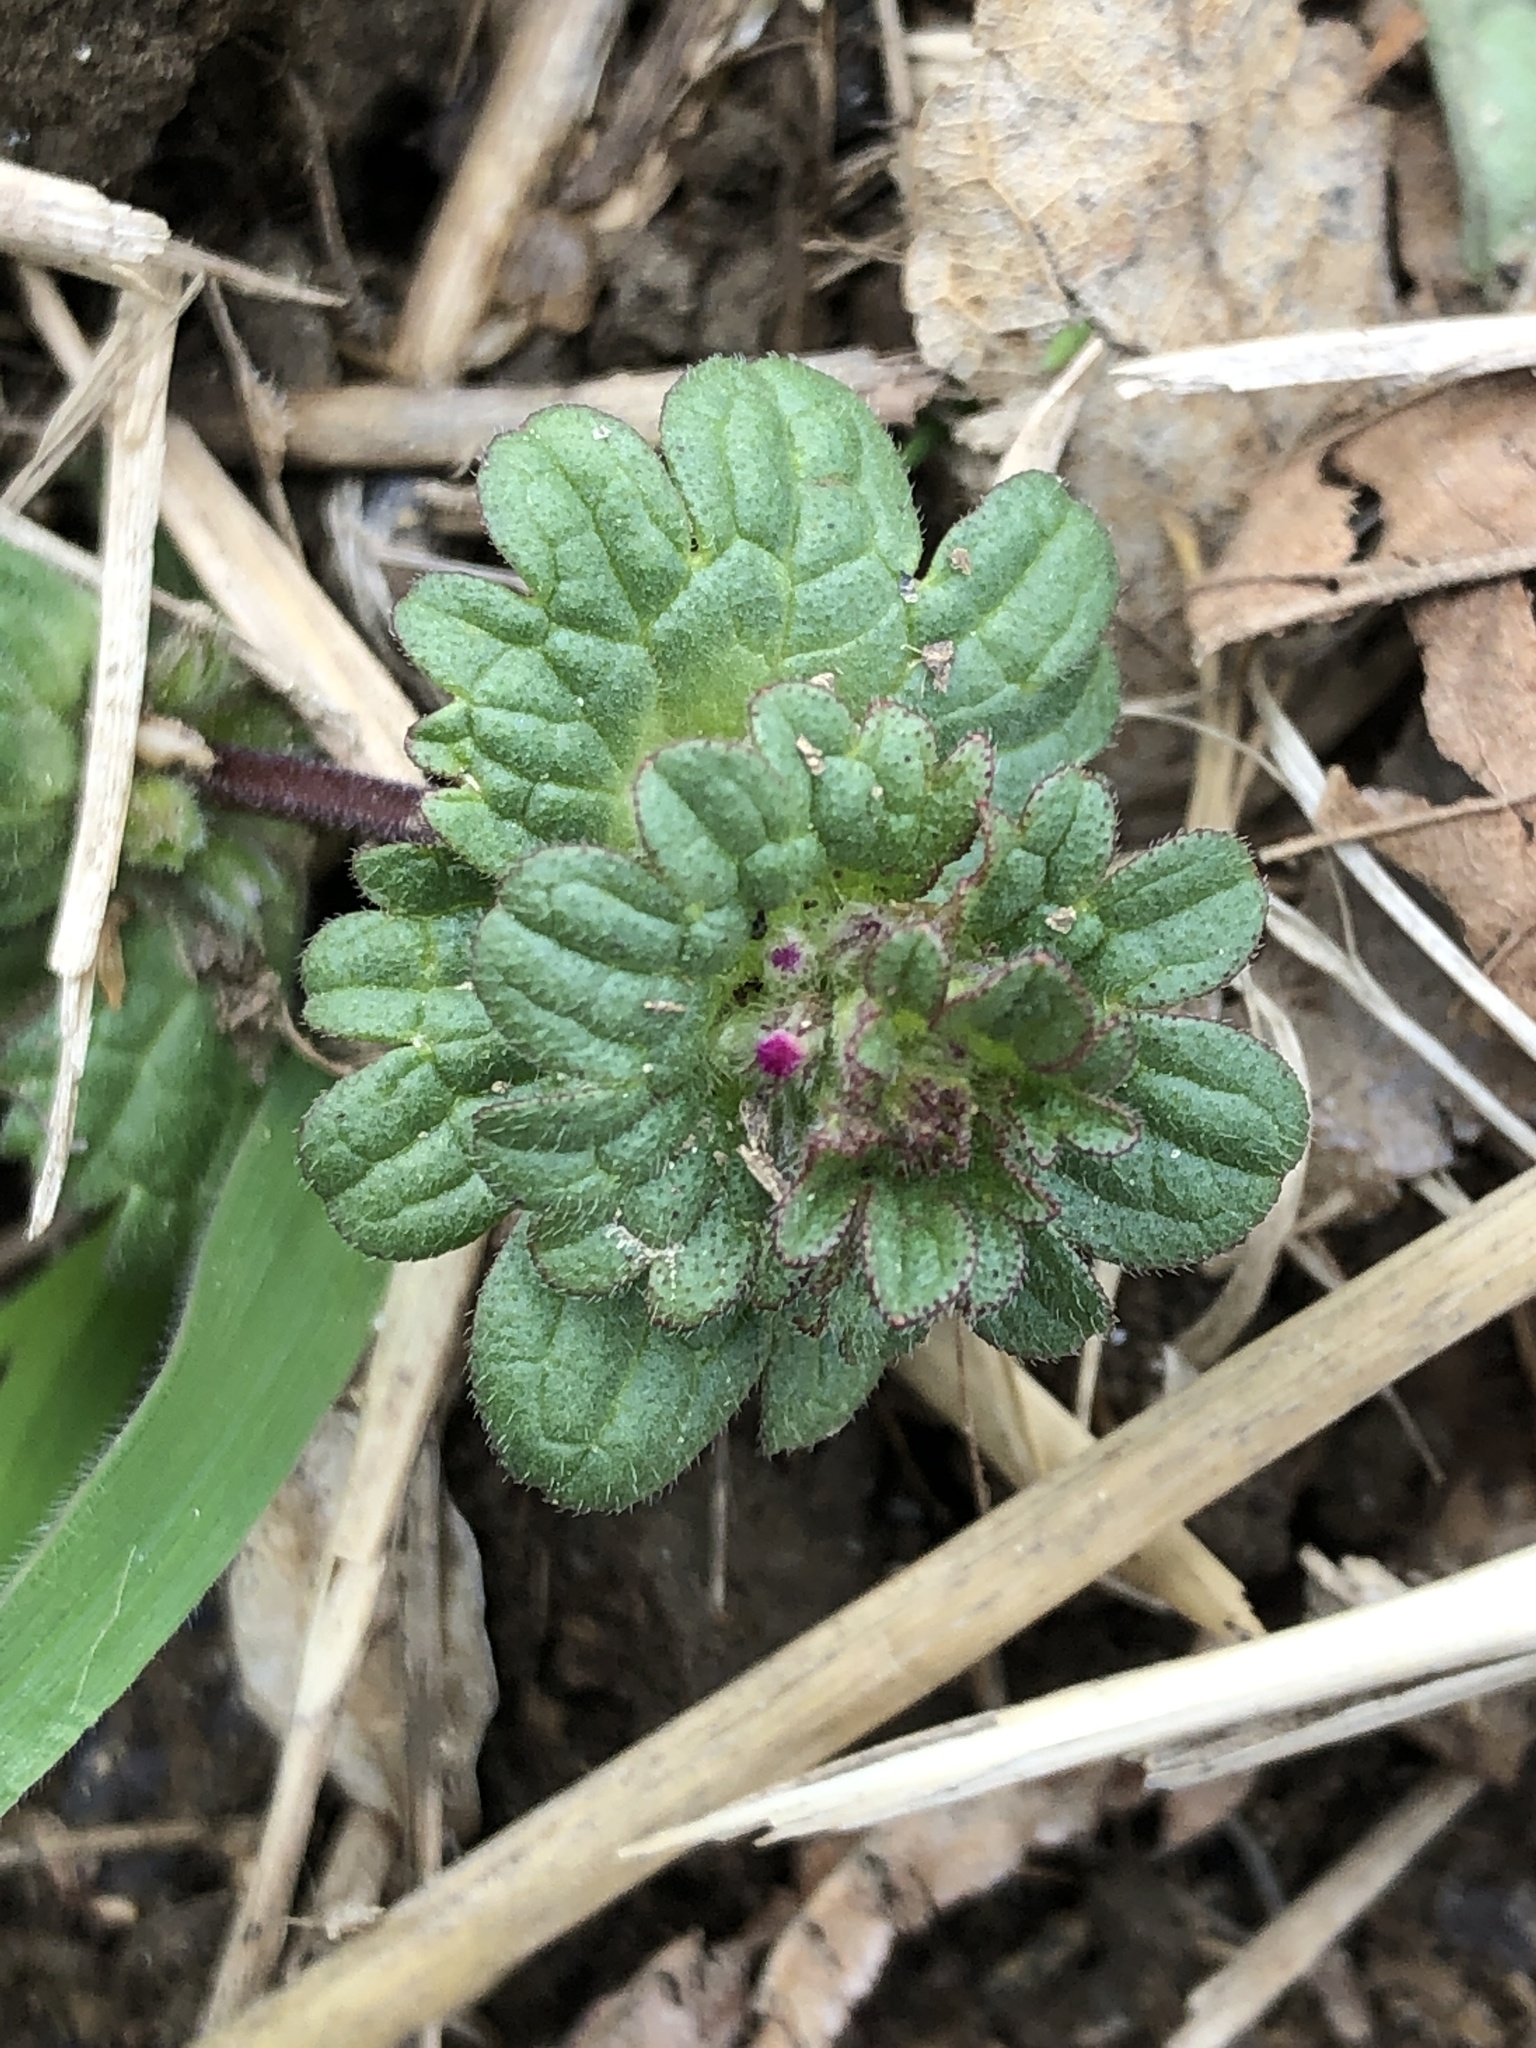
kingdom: Plantae
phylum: Tracheophyta
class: Magnoliopsida
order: Lamiales
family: Lamiaceae
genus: Lamium
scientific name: Lamium amplexicaule
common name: Henbit dead-nettle
